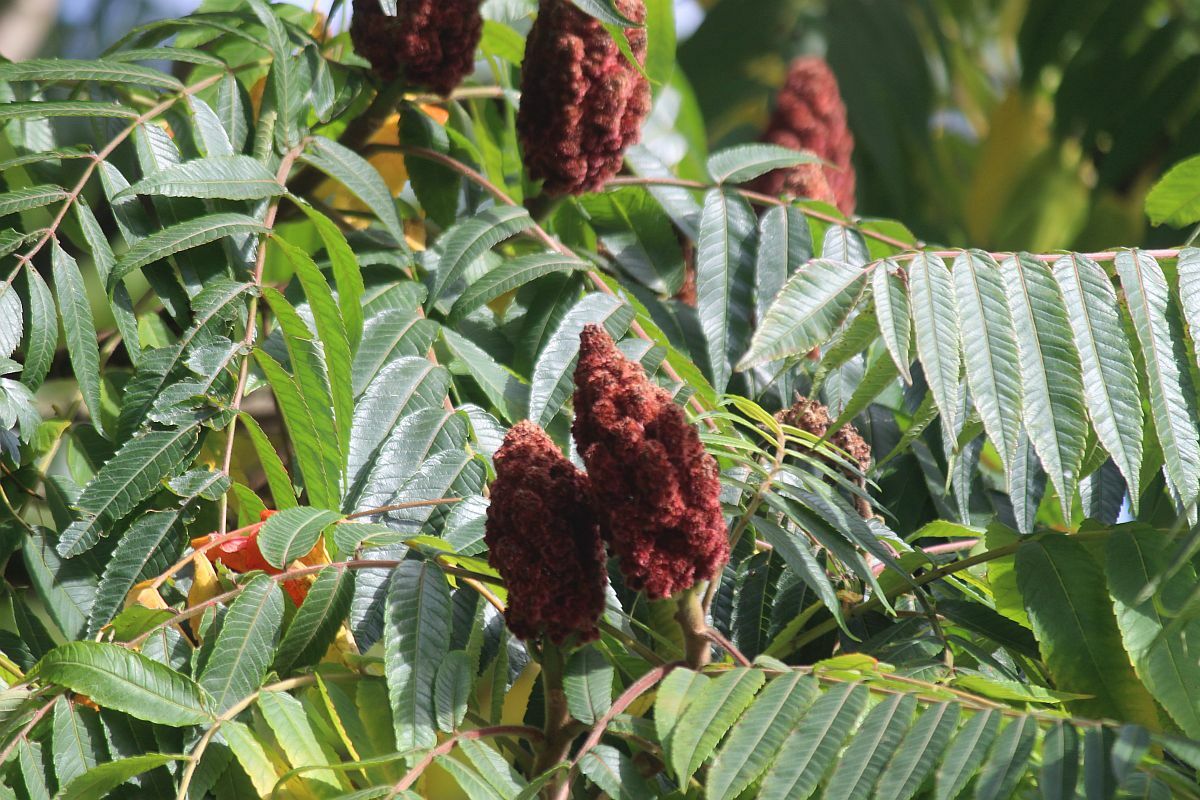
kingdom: Plantae
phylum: Tracheophyta
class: Magnoliopsida
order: Sapindales
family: Anacardiaceae
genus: Rhus
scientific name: Rhus typhina
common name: Staghorn sumac
